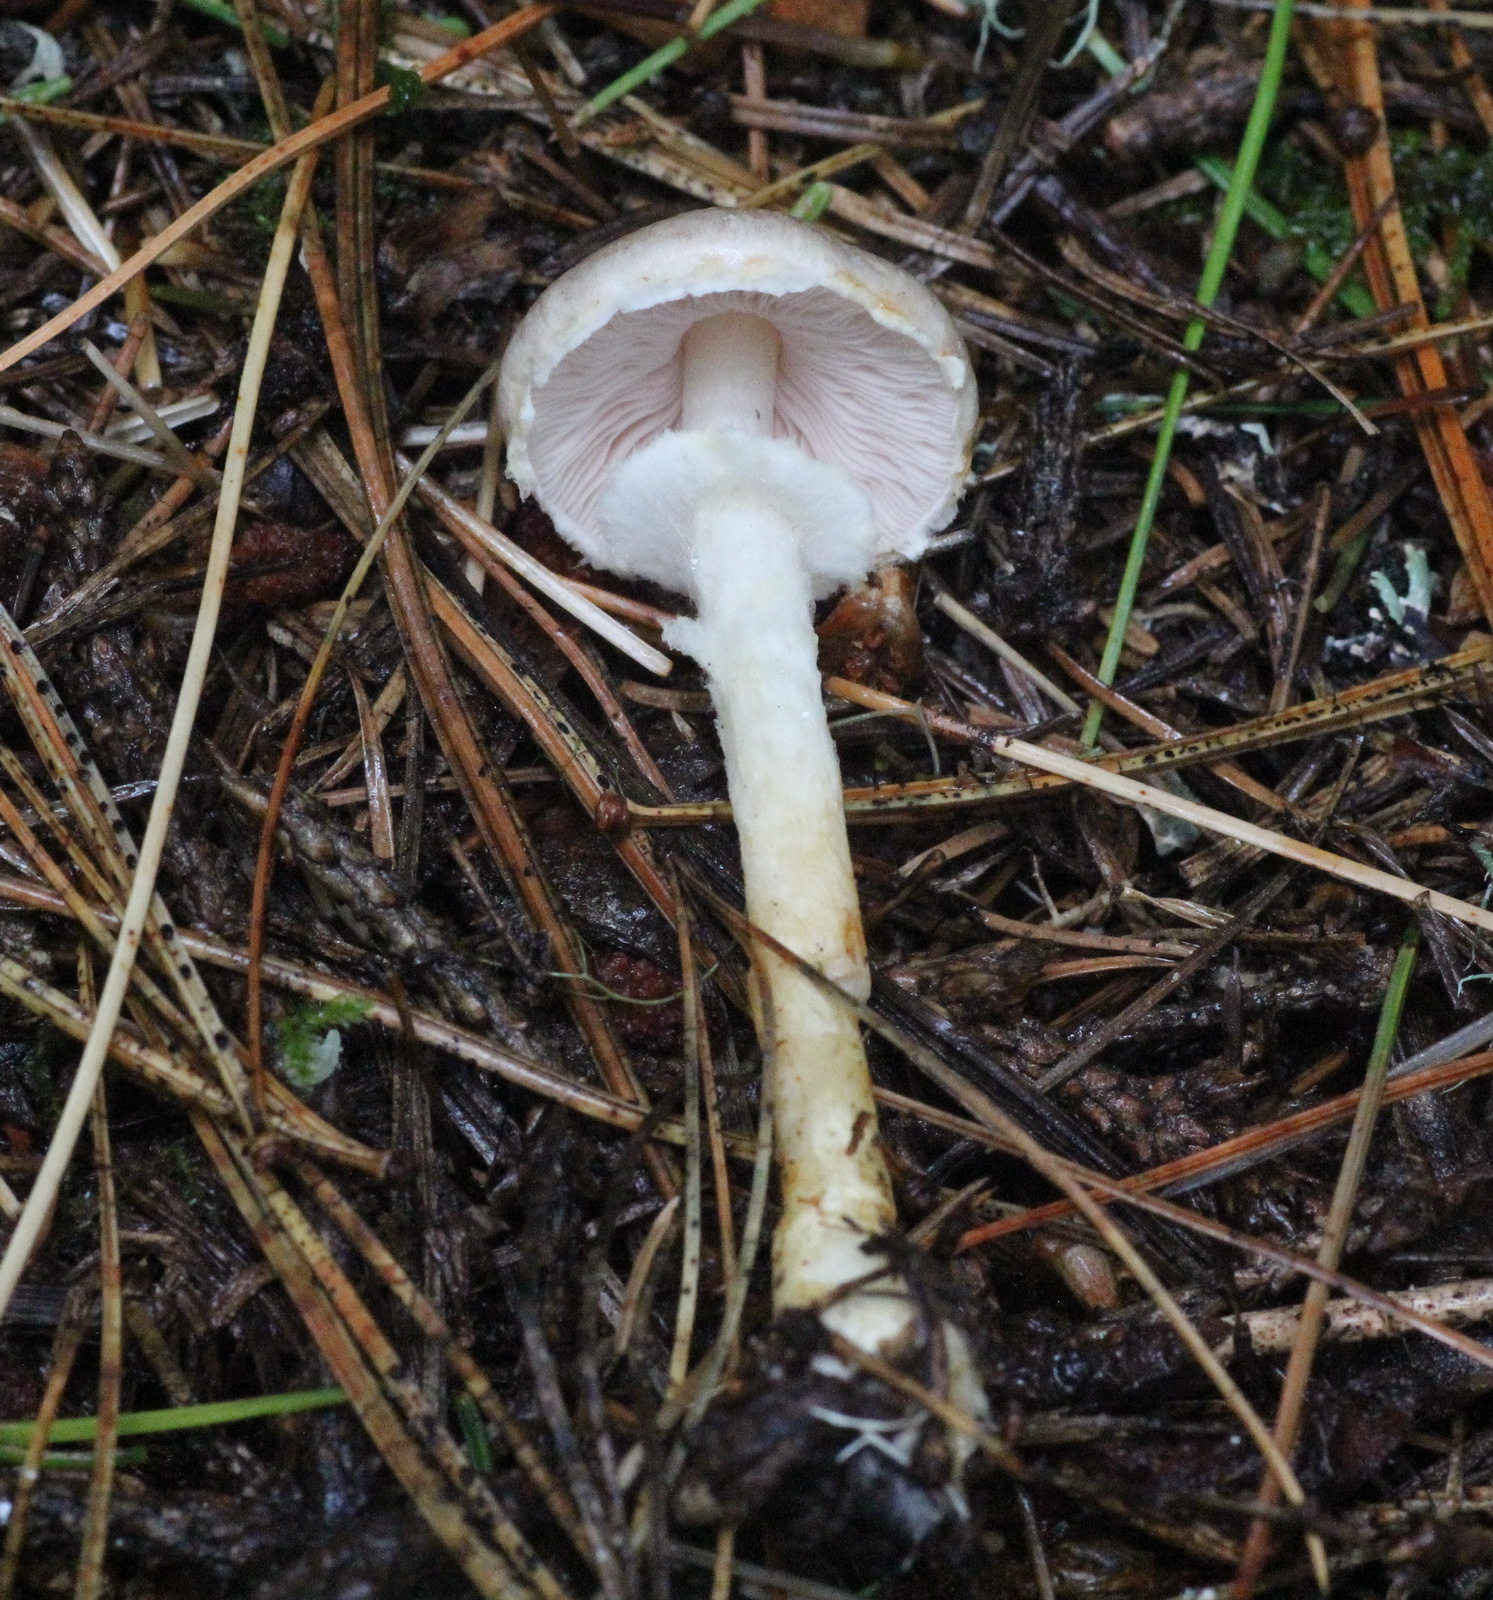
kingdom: Fungi
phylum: Basidiomycota
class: Agaricomycetes
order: Agaricales
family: Agaricaceae
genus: Agaricus
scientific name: Agaricus semotus
